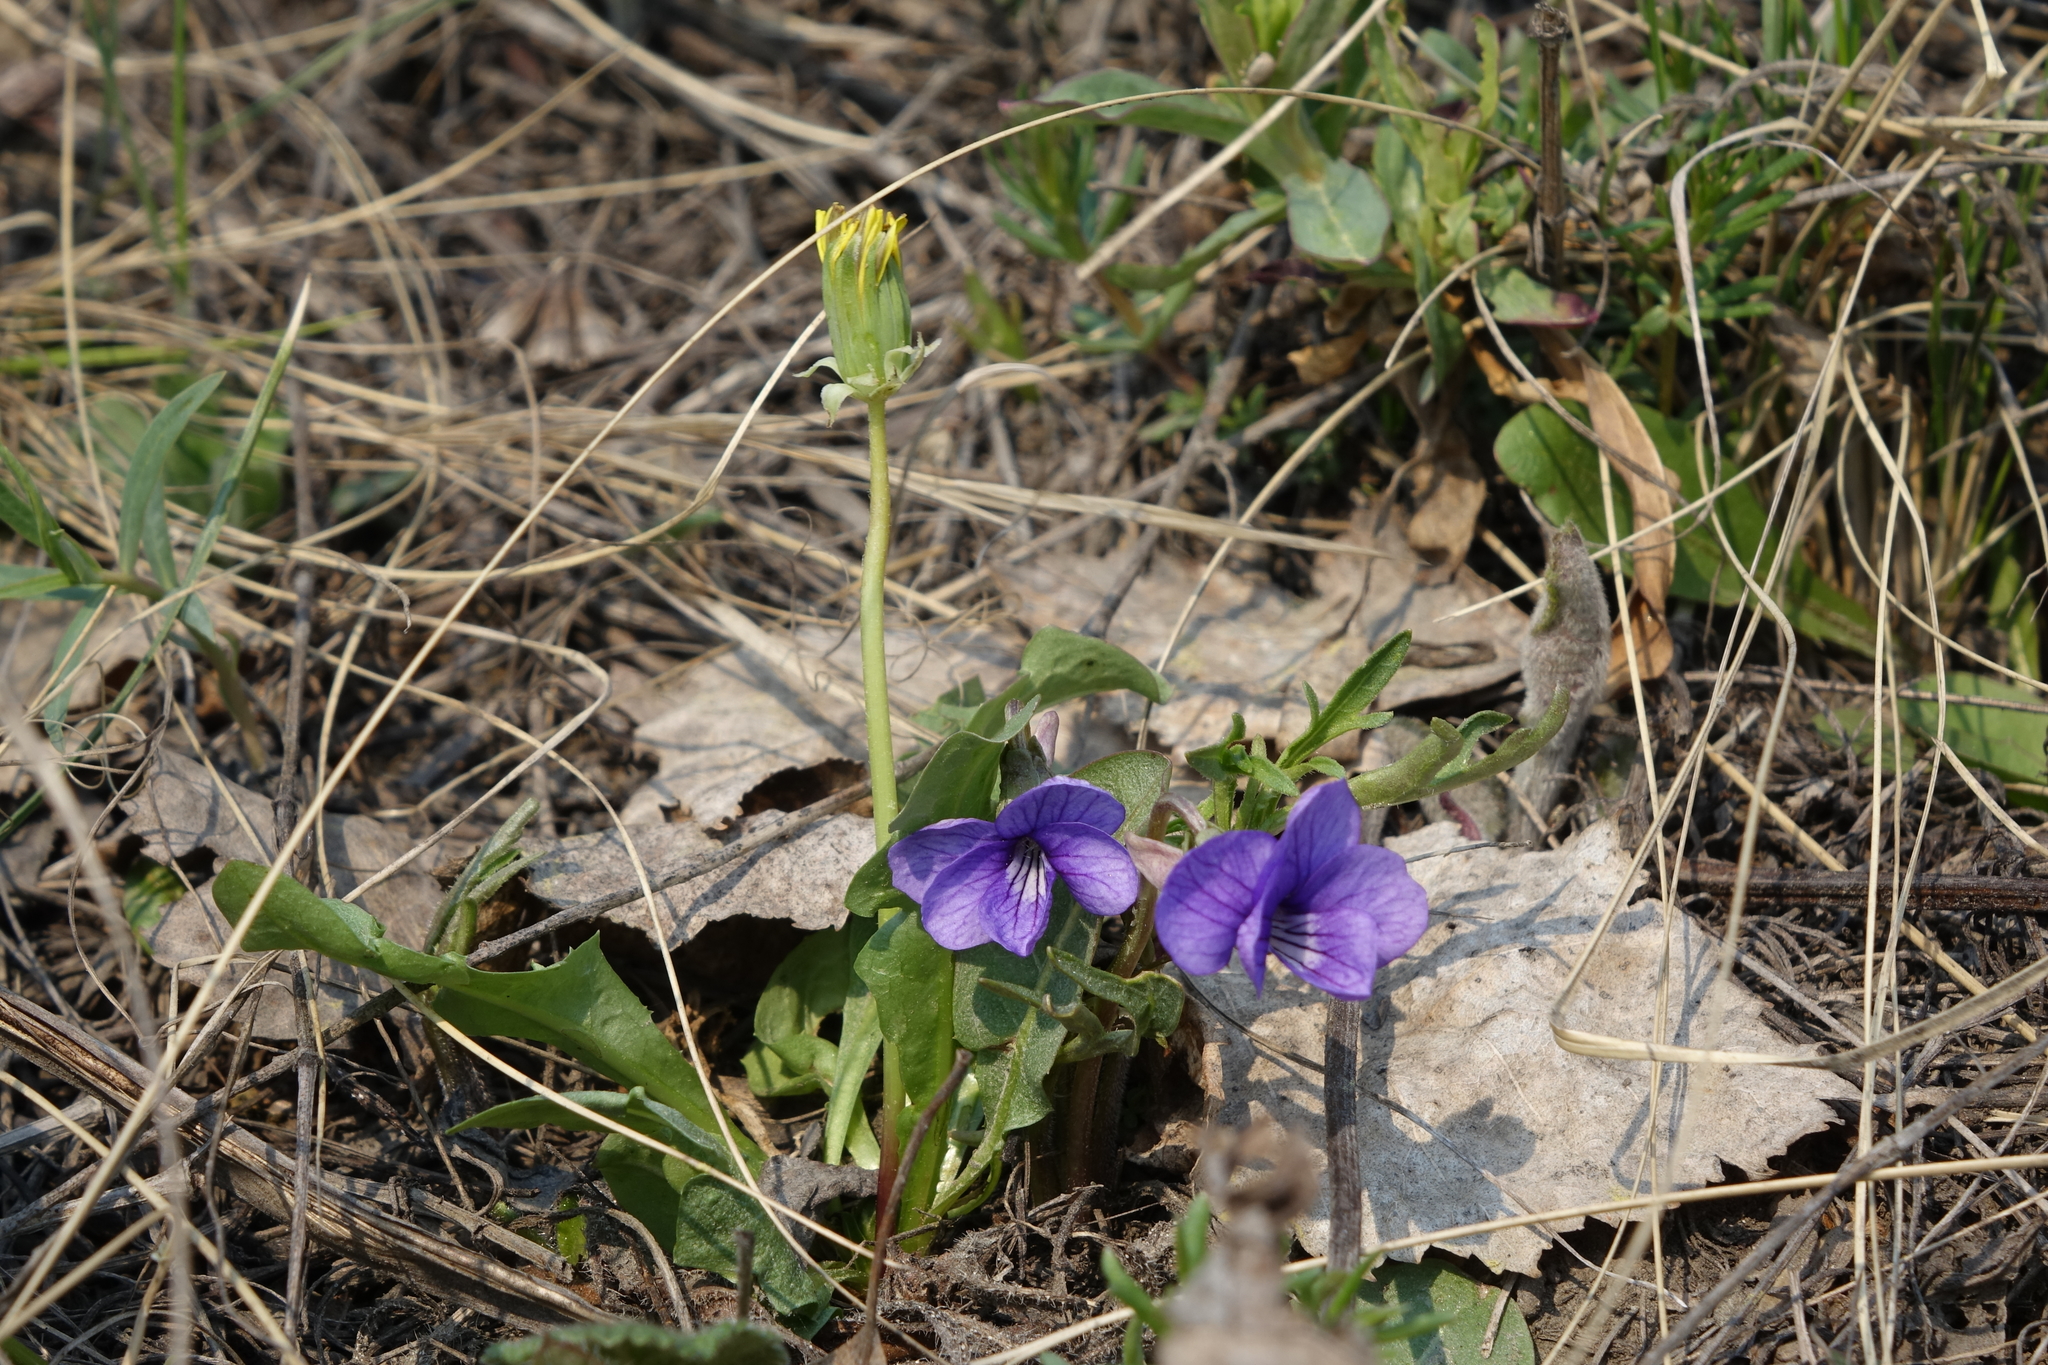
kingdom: Plantae
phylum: Tracheophyta
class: Magnoliopsida
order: Asterales
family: Asteraceae
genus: Taraxacum
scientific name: Taraxacum officinale
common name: Common dandelion
